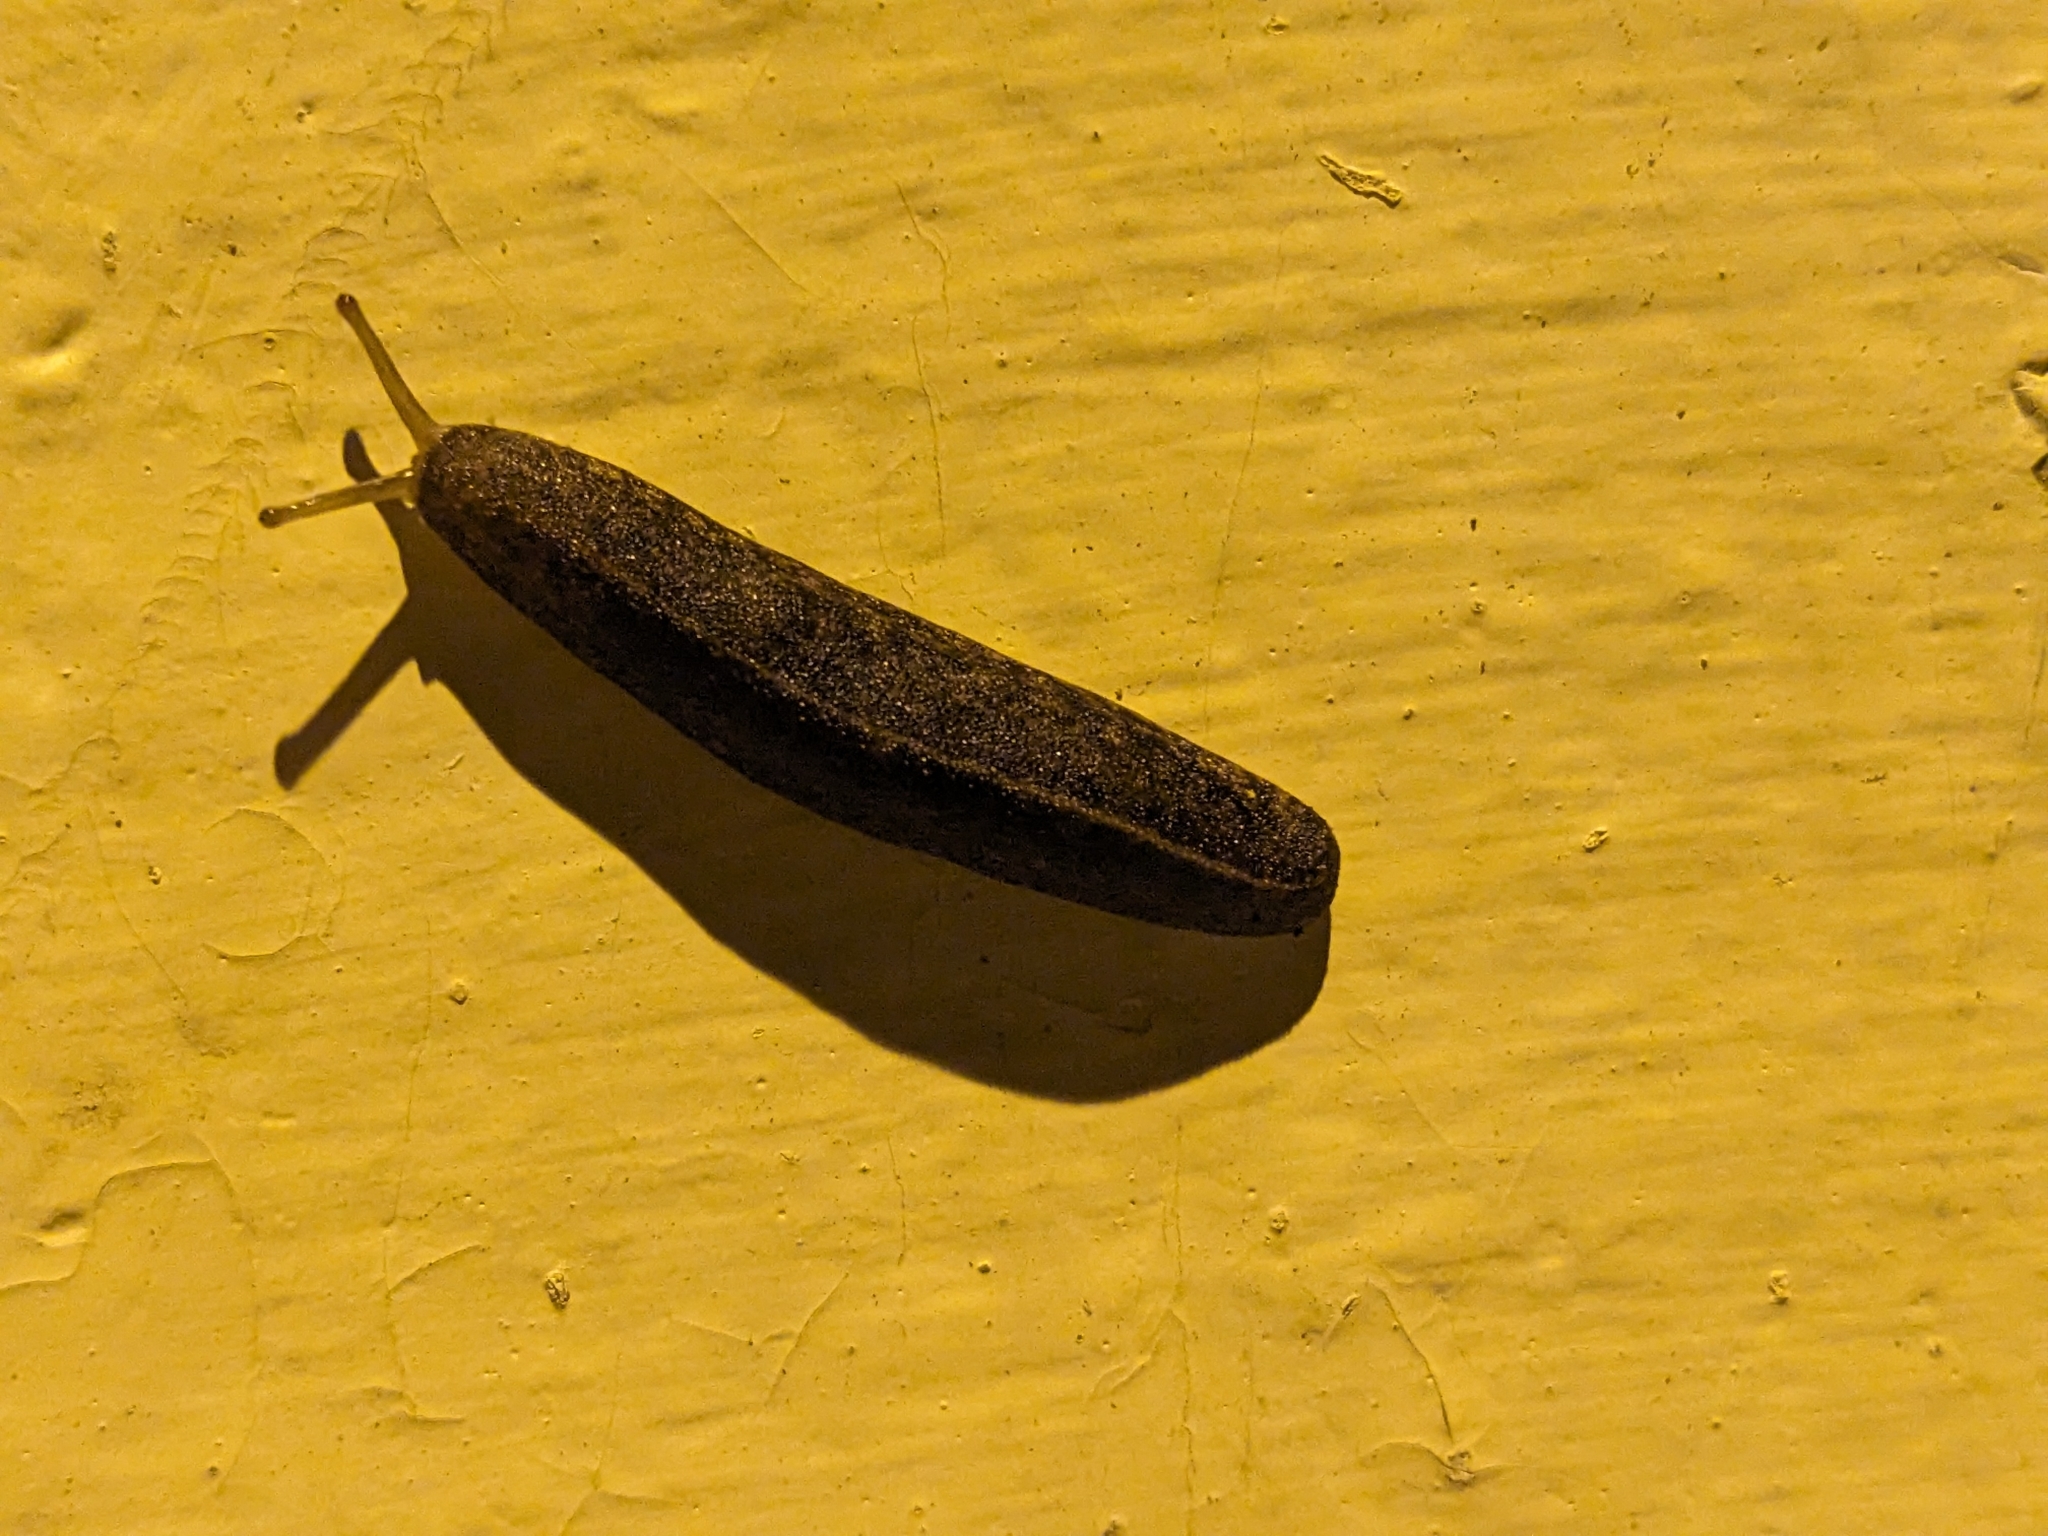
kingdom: Animalia
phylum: Mollusca
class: Gastropoda
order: Systellommatophora
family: Veronicellidae
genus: Laevicaulis
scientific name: Laevicaulis alte
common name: Tropical leatherleaf
